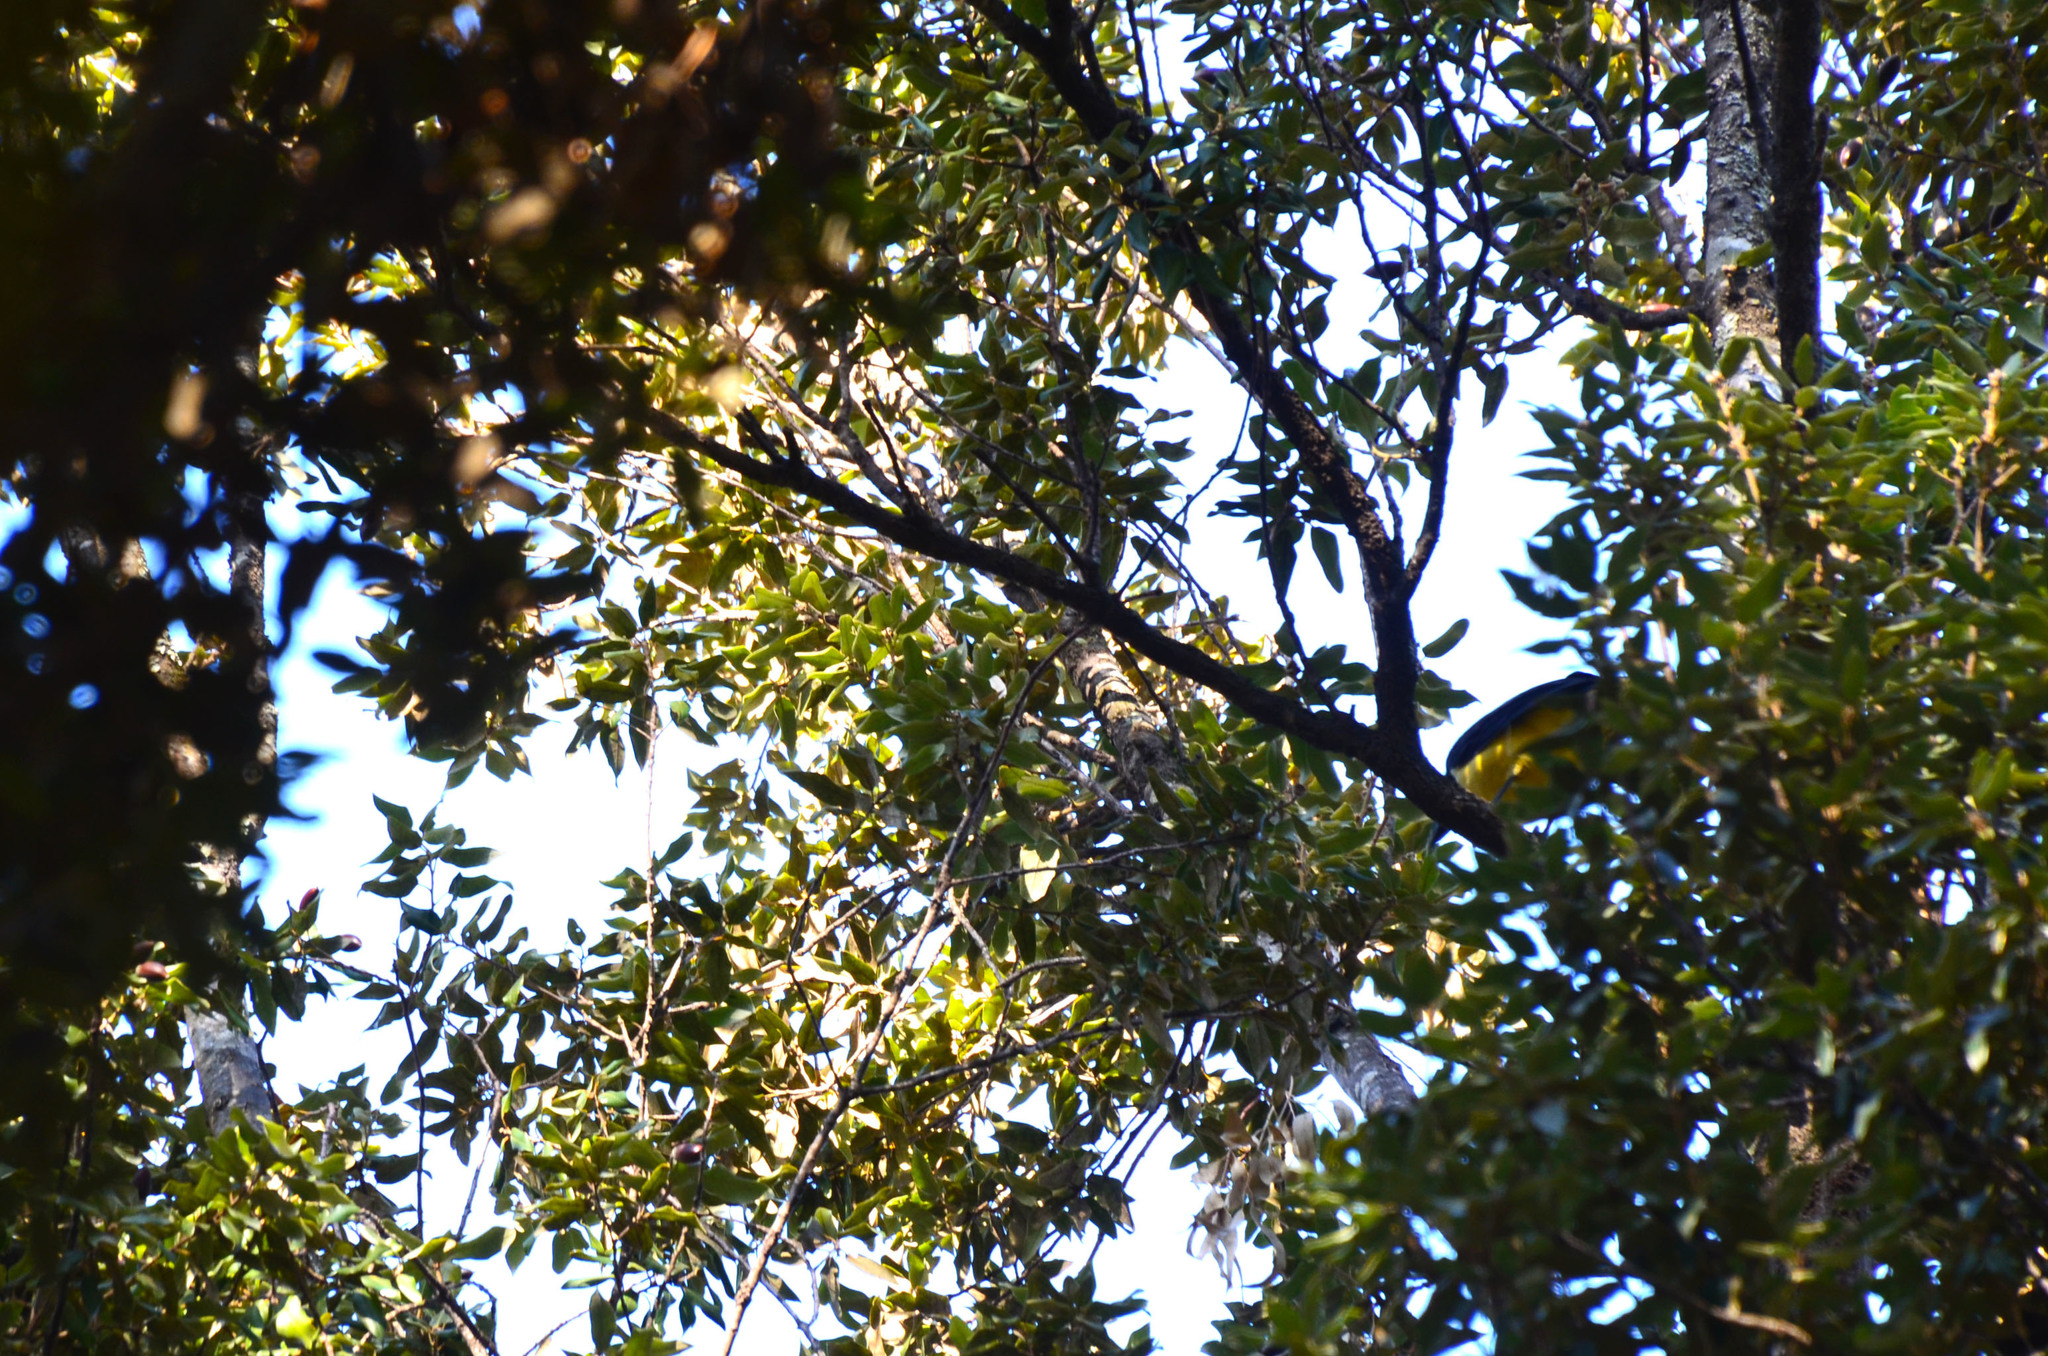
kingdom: Animalia
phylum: Chordata
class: Aves
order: Passeriformes
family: Corvidae
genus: Cyanocorax
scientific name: Cyanocorax chrysops
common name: Plush-crested jay
